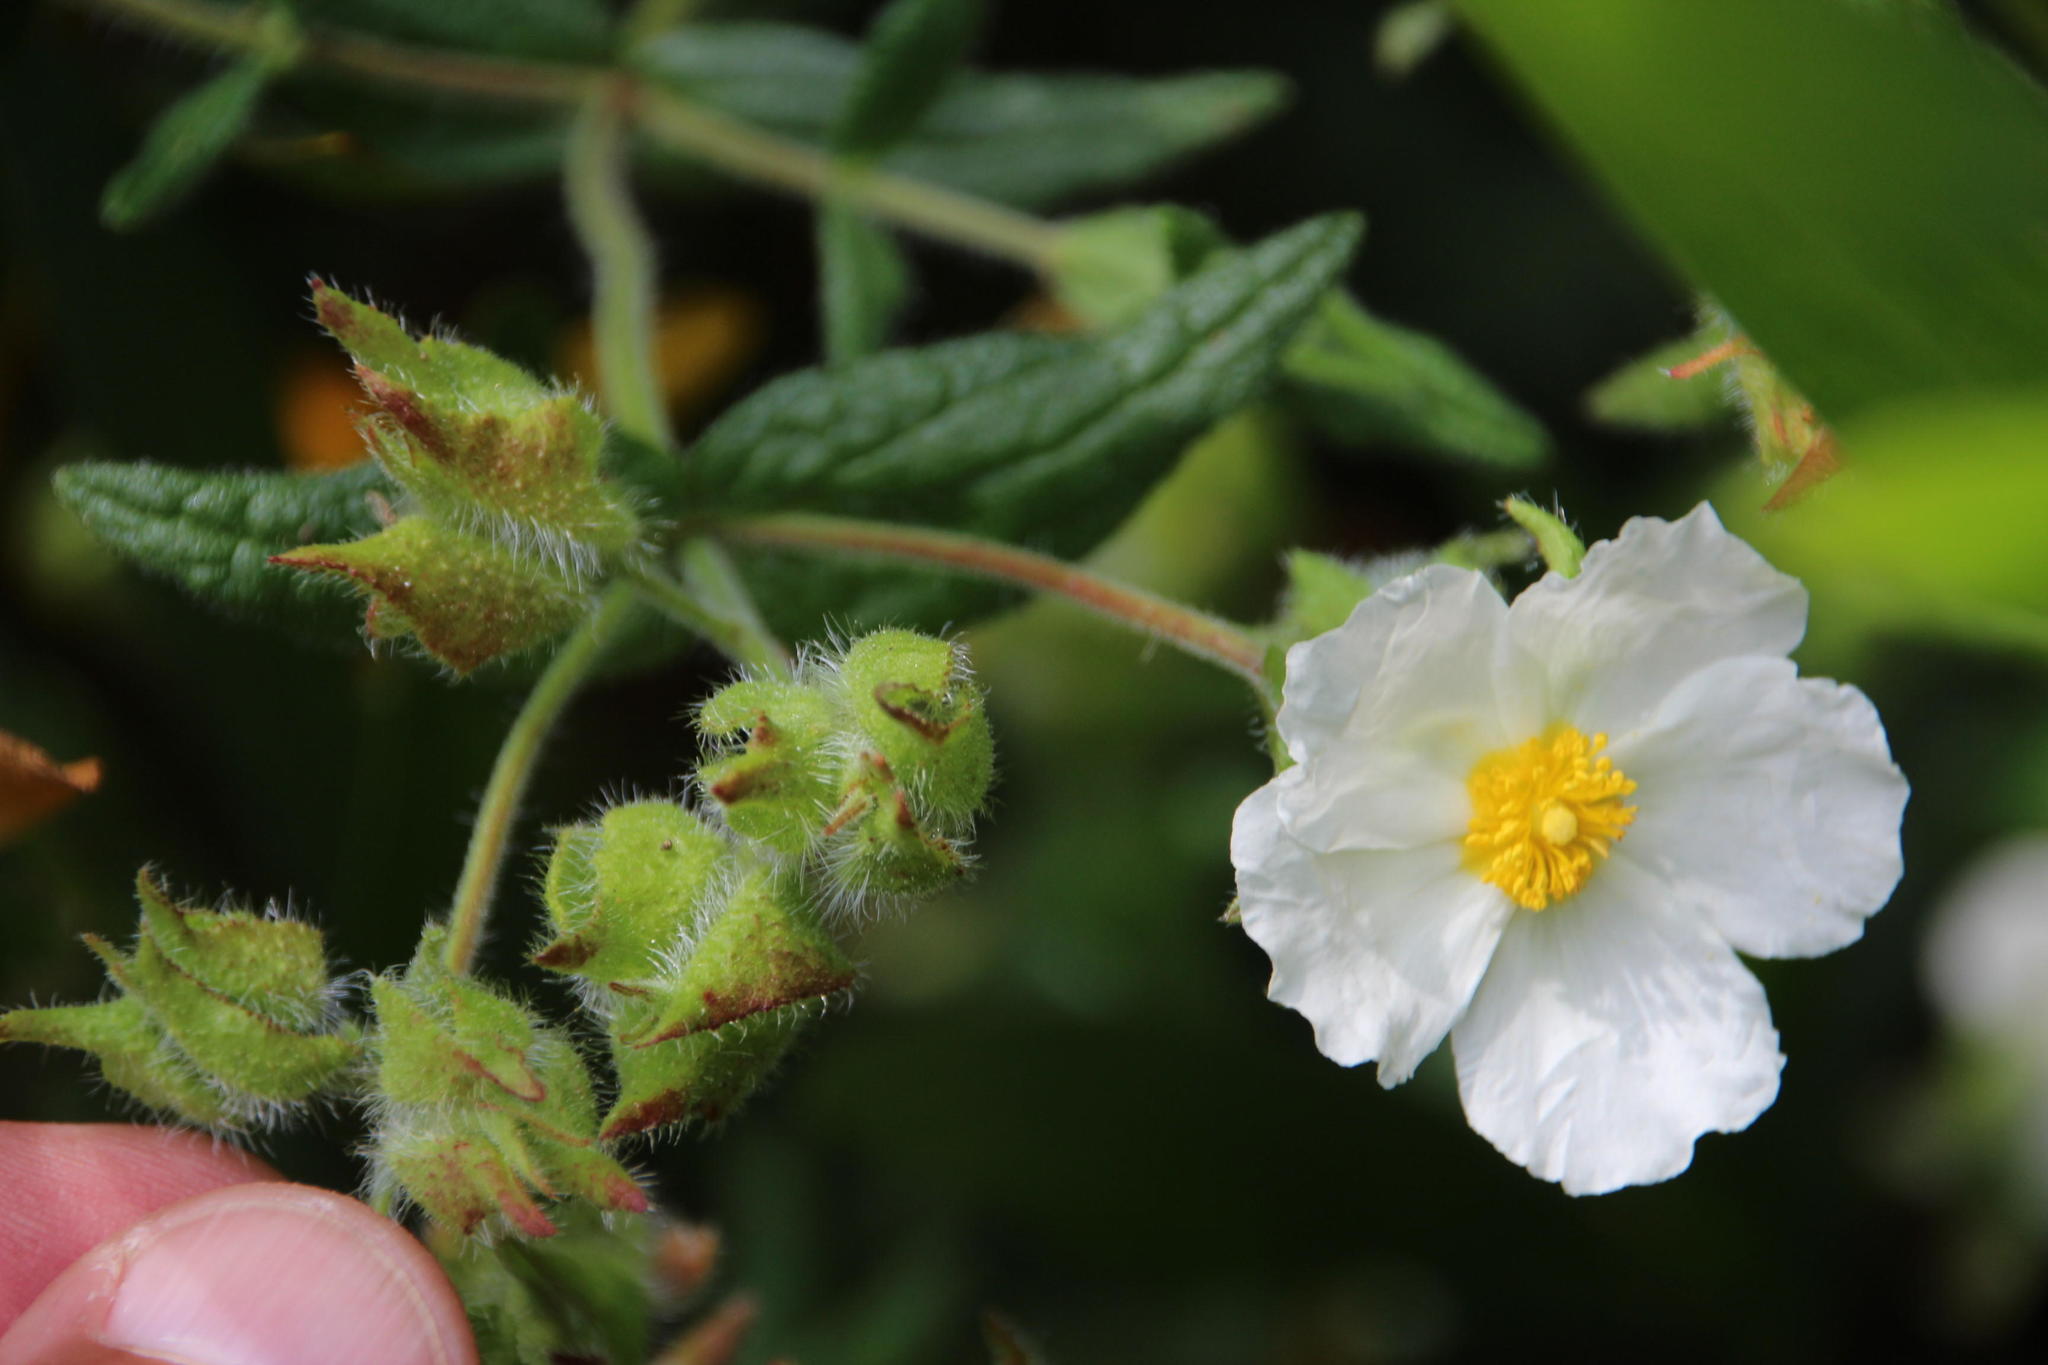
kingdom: Plantae
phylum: Tracheophyta
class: Magnoliopsida
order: Malvales
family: Cistaceae
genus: Cistus
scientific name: Cistus inflatus
